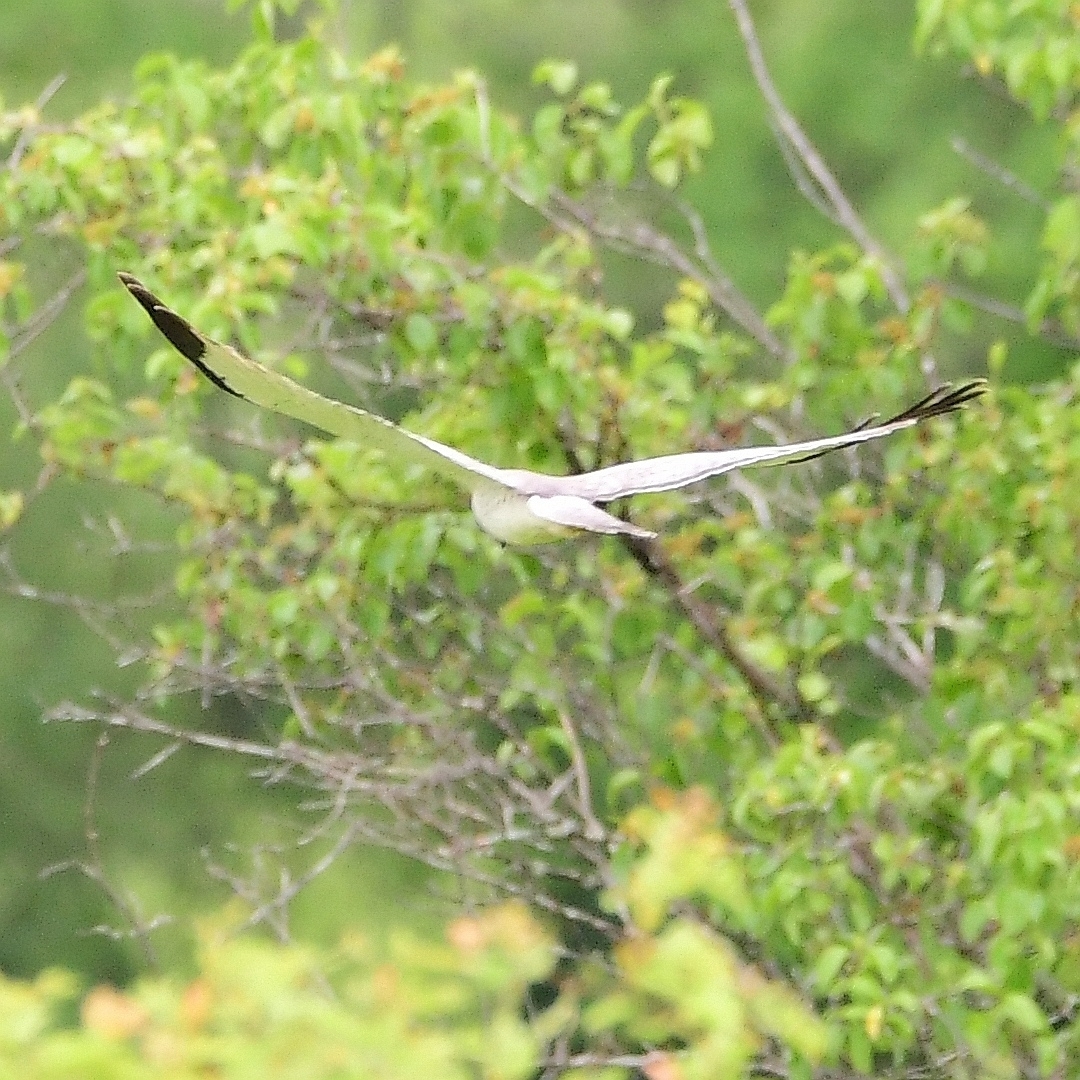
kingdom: Animalia
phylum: Chordata
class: Aves
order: Accipitriformes
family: Accipitridae
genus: Circus
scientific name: Circus cyaneus
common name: Hen harrier
